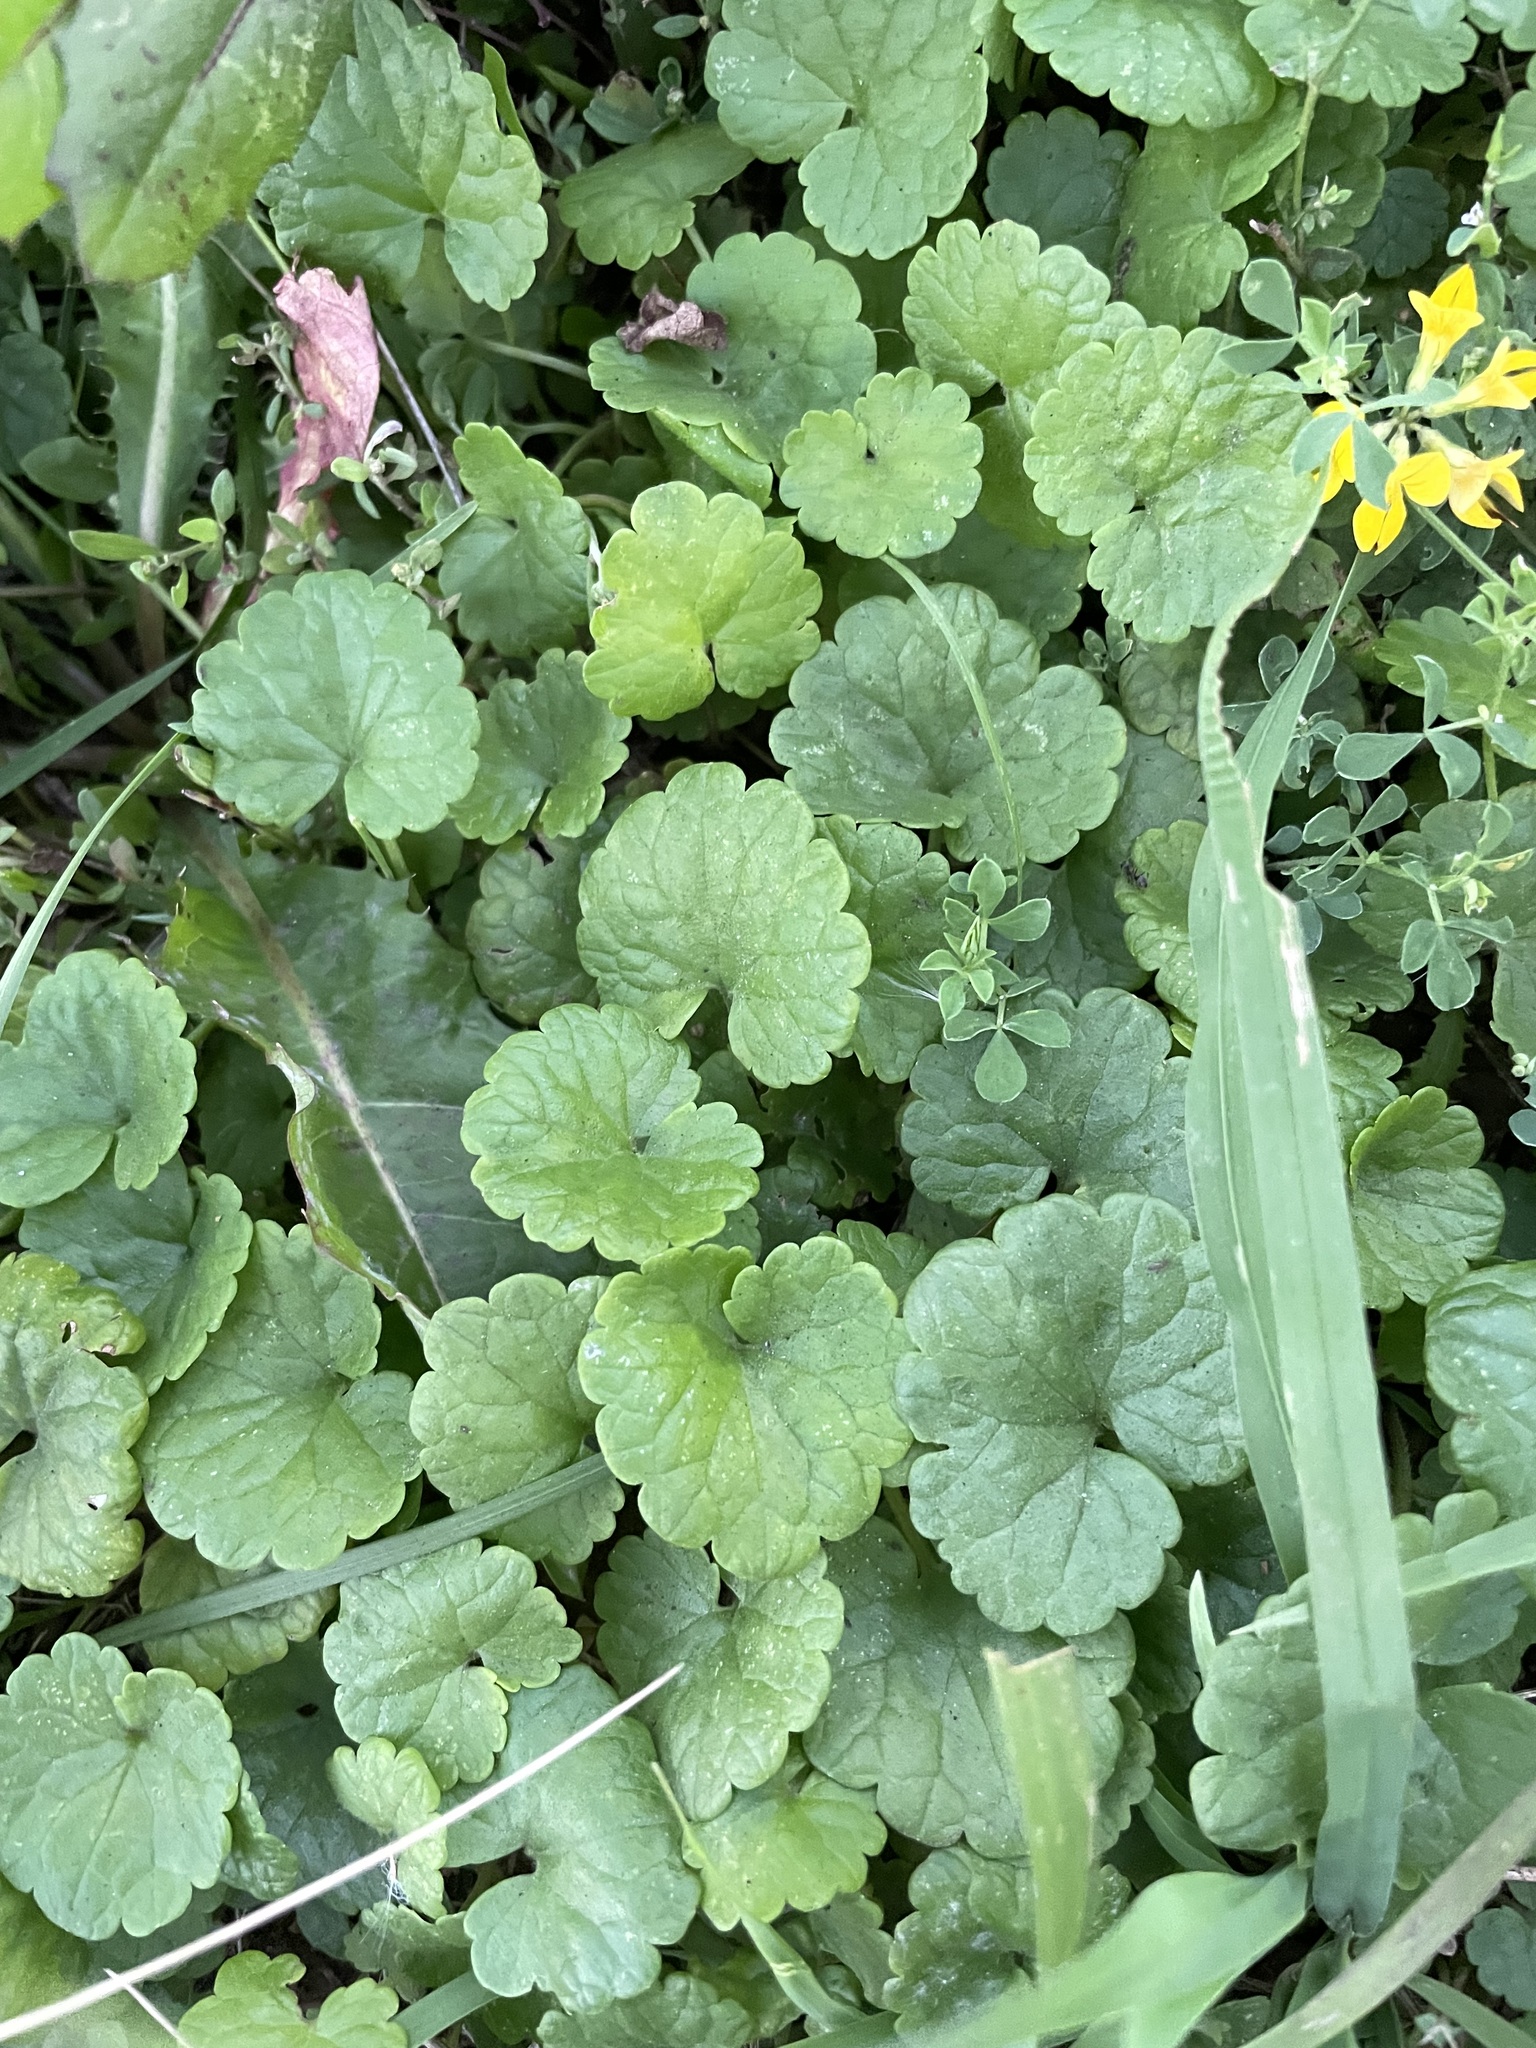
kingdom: Plantae
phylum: Tracheophyta
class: Magnoliopsida
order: Lamiales
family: Lamiaceae
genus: Glechoma
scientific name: Glechoma hederacea
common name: Ground ivy
